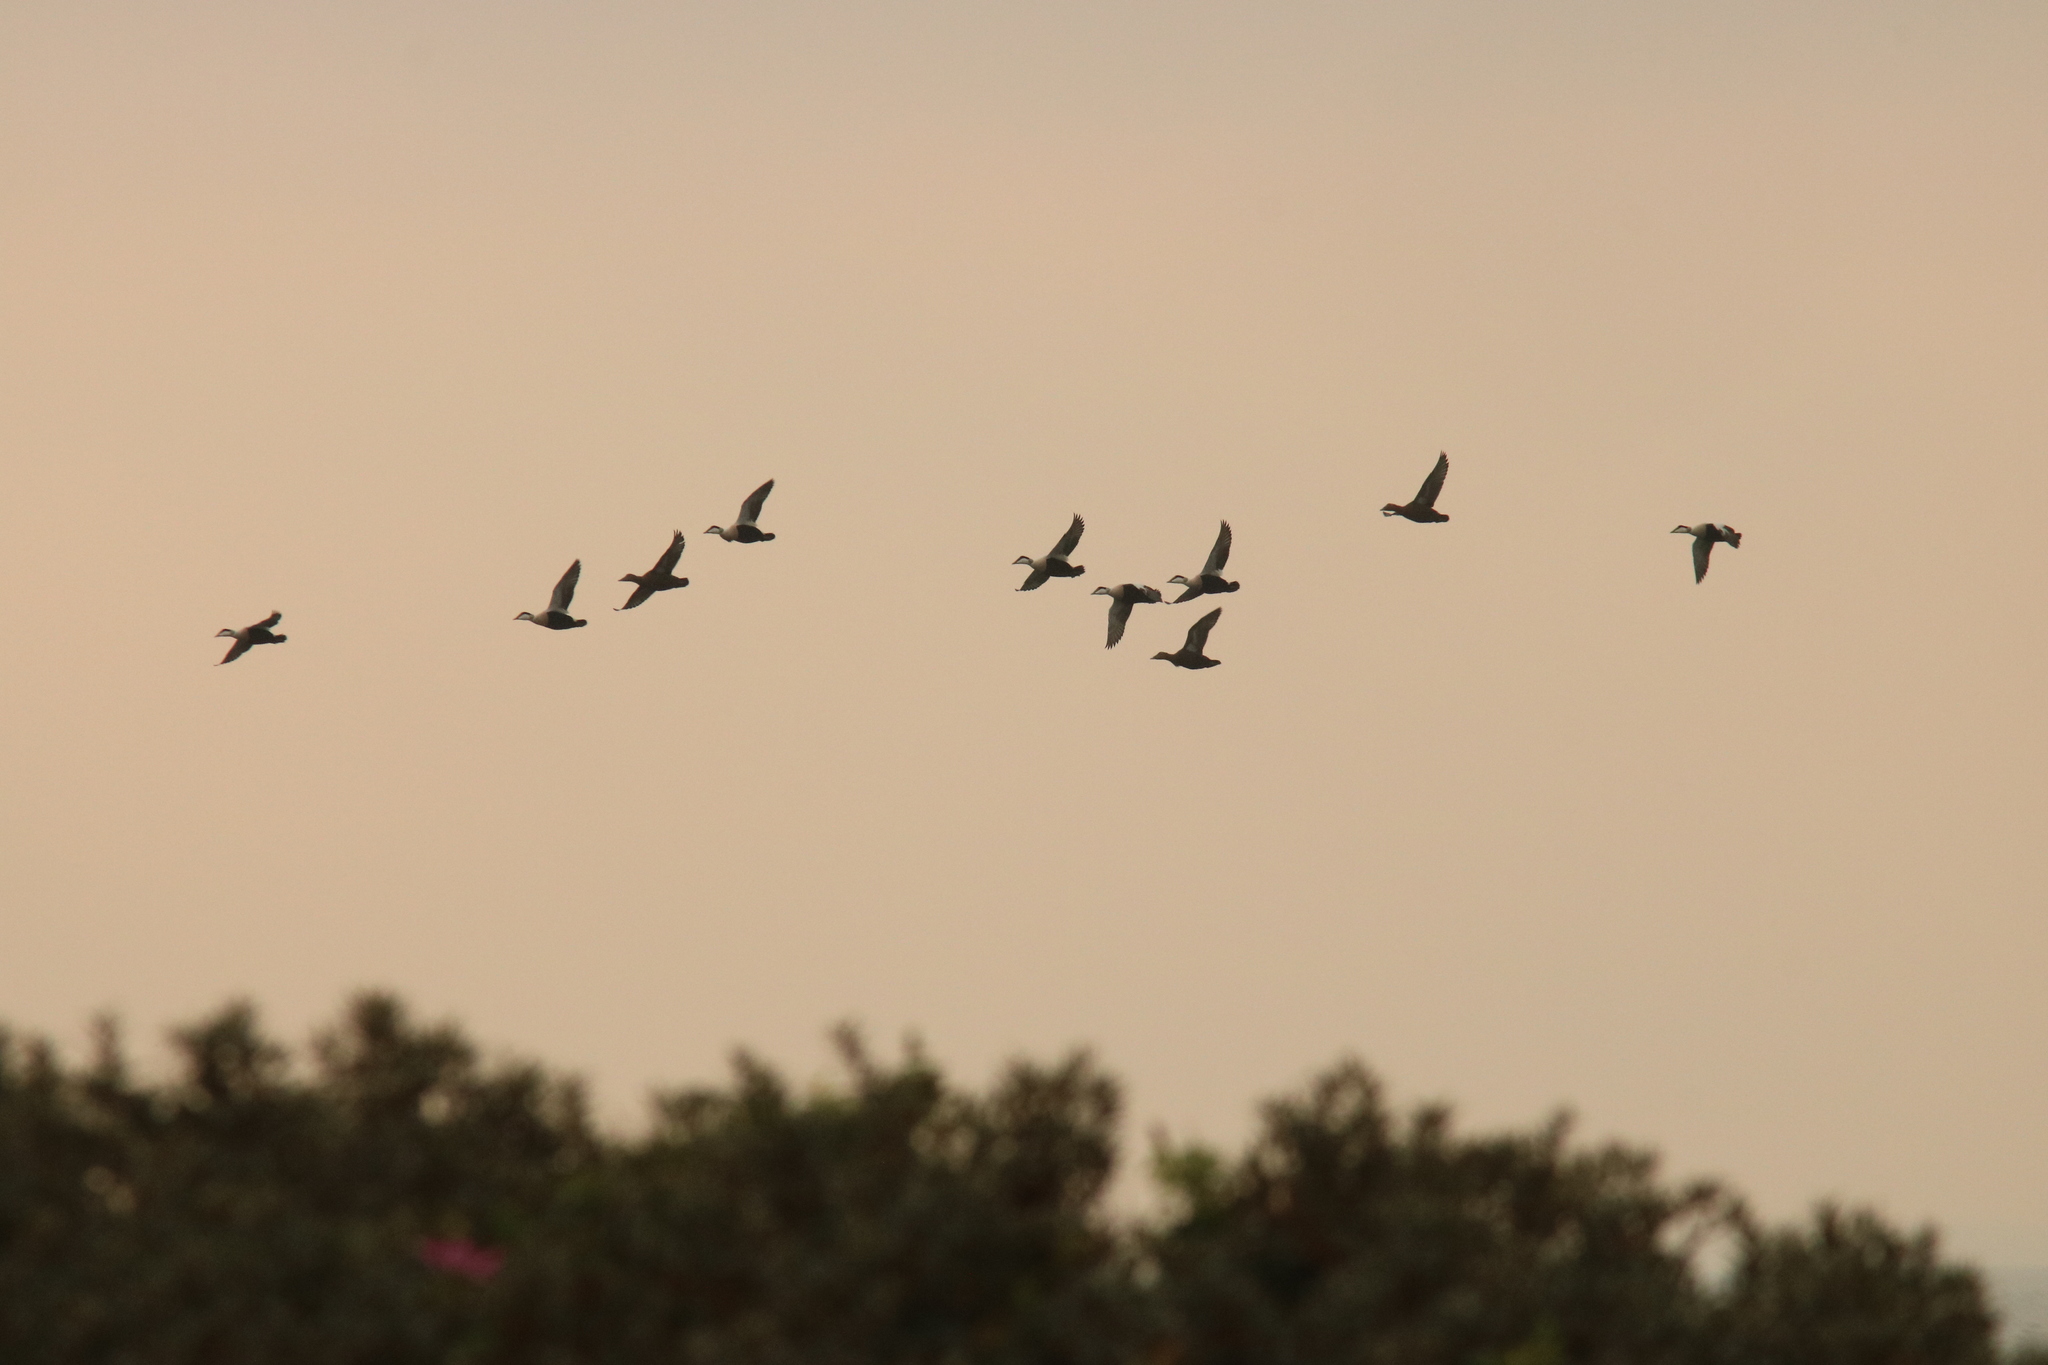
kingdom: Animalia
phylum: Chordata
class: Aves
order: Anseriformes
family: Anatidae
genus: Somateria
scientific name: Somateria mollissima
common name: Common eider
